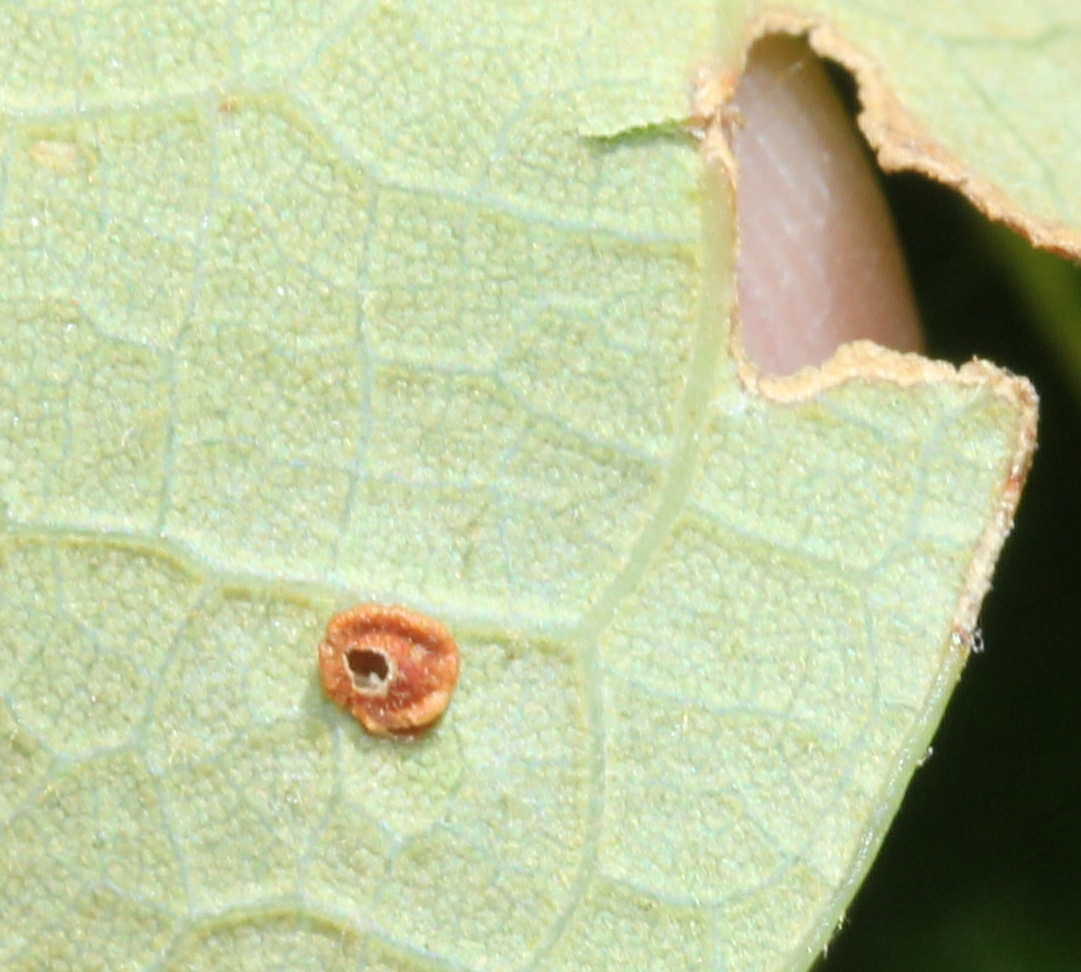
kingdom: Animalia
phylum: Arthropoda
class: Insecta
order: Hymenoptera
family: Cynipidae
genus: Neuroterus
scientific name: Neuroterus
